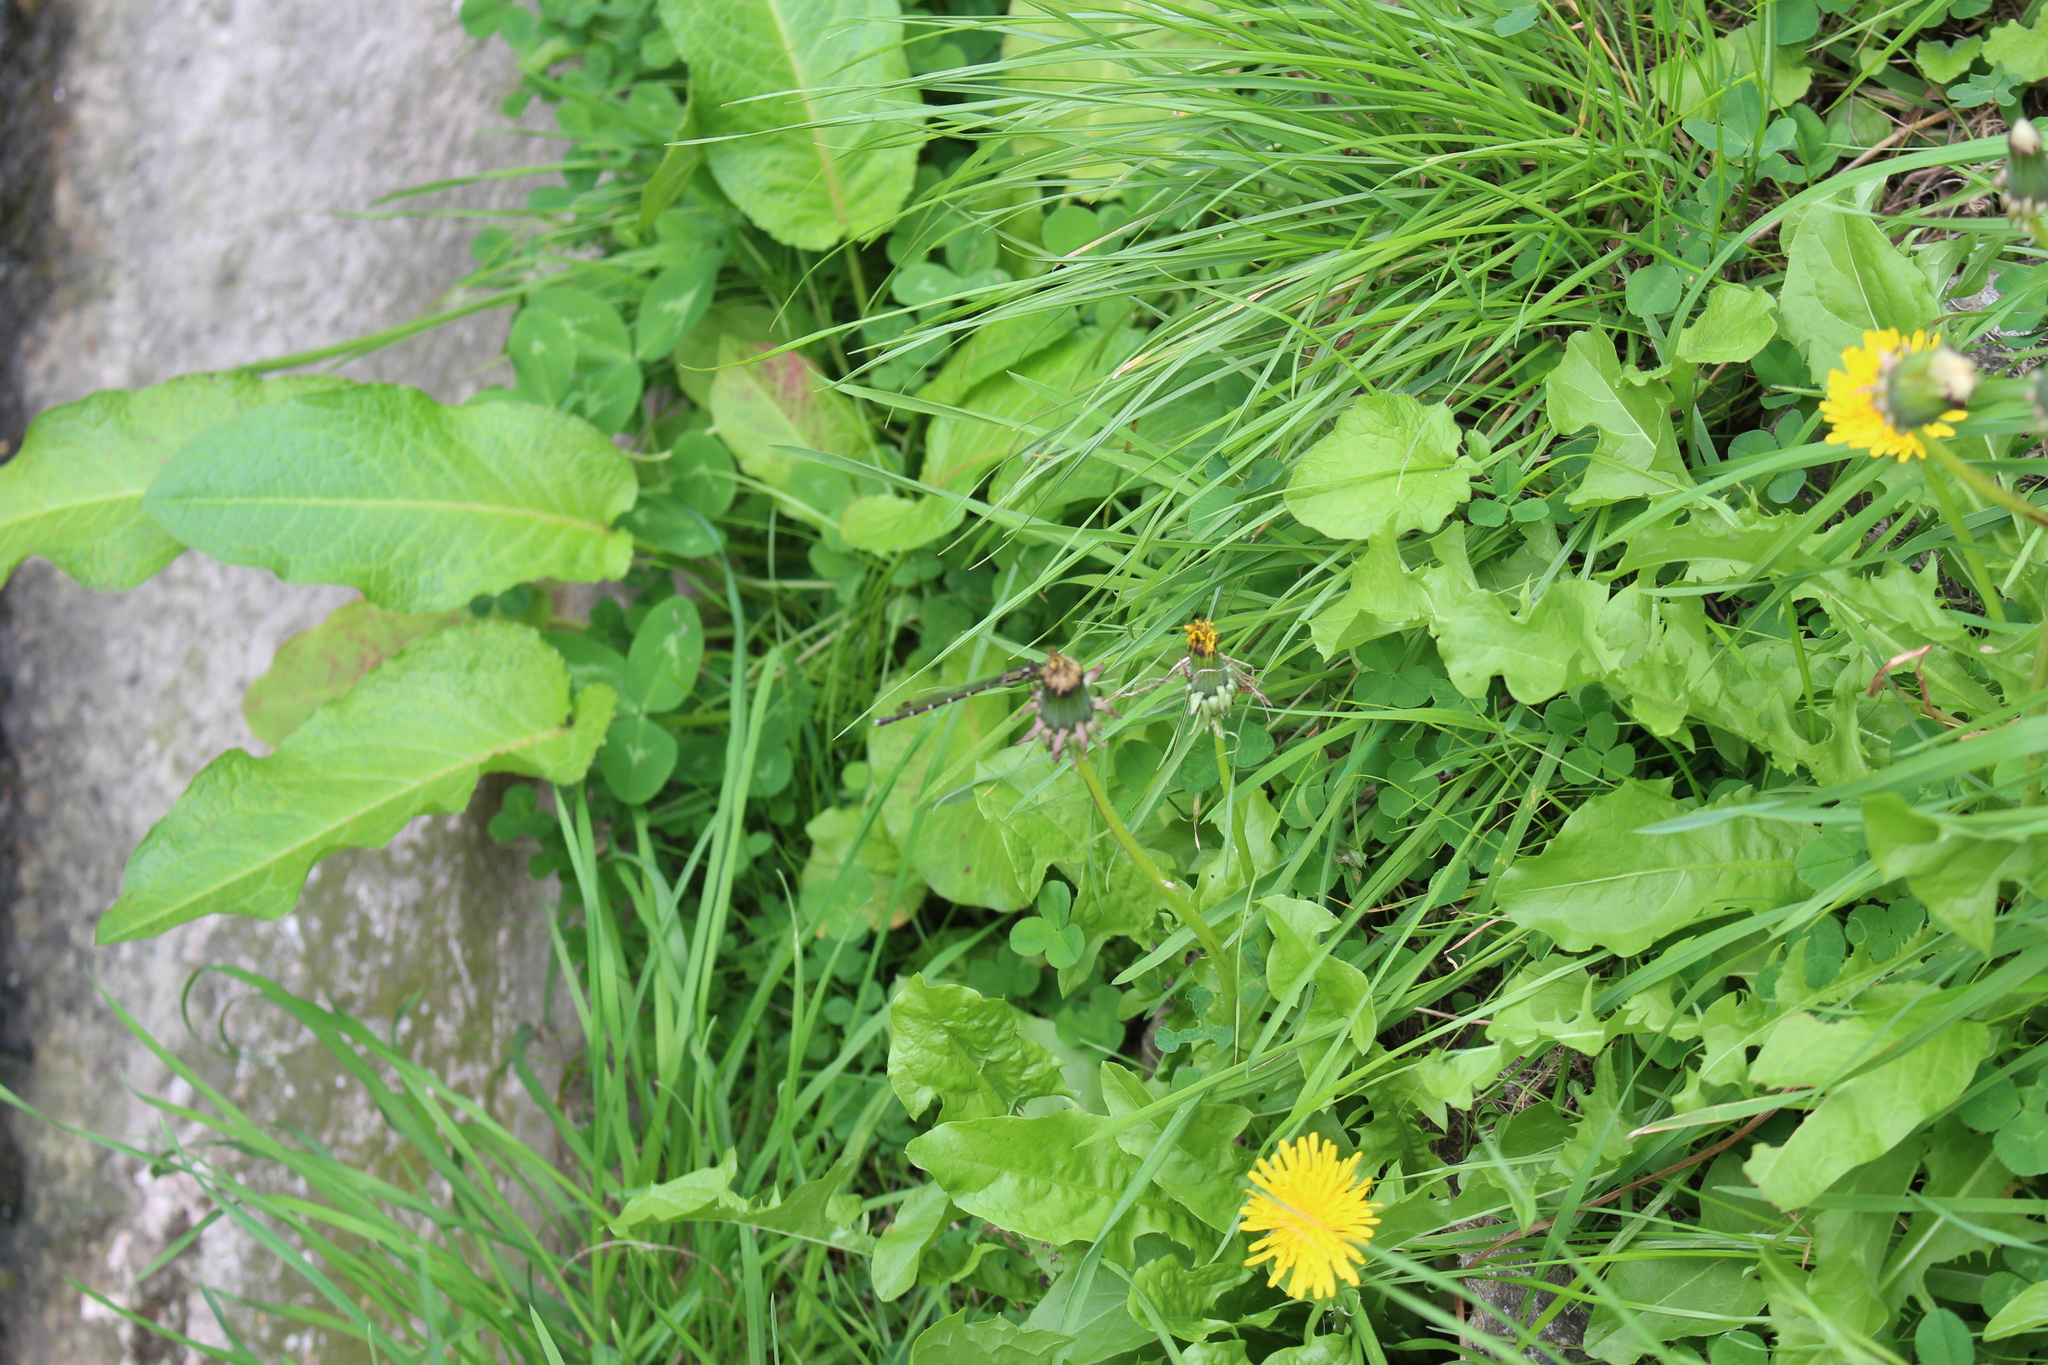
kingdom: Animalia
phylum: Arthropoda
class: Insecta
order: Odonata
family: Lestidae
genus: Austrolestes
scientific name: Austrolestes colensonis
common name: Blue damselfly
